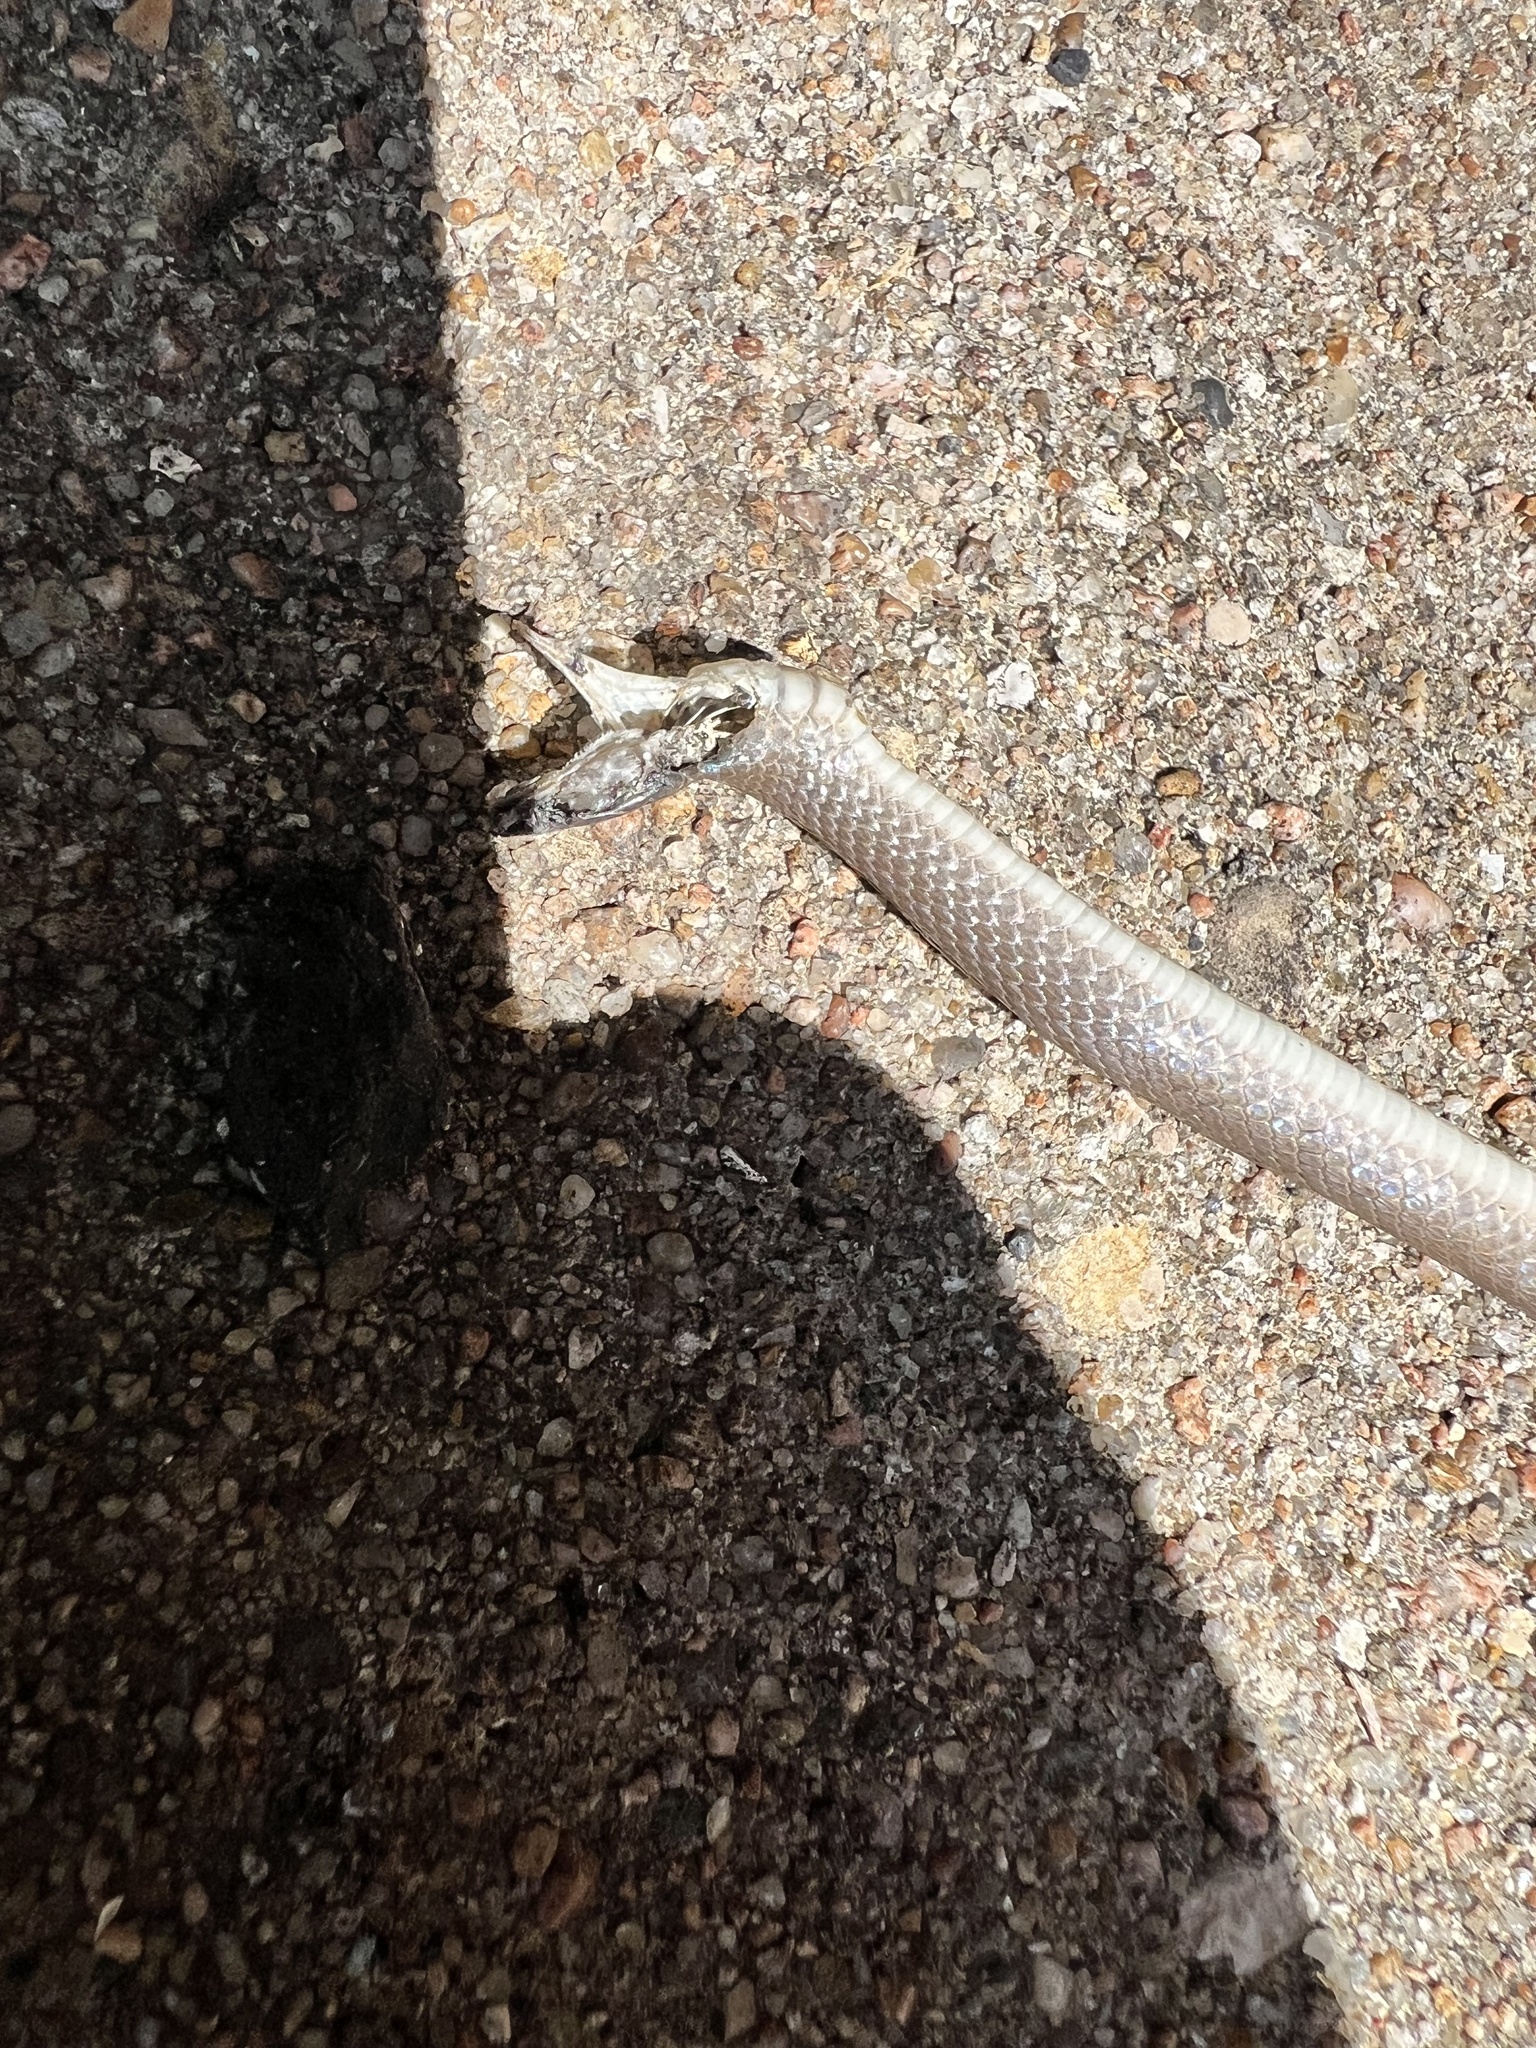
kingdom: Animalia
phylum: Chordata
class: Squamata
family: Colubridae
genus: Haldea
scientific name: Haldea striatula
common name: Rough earth snake
